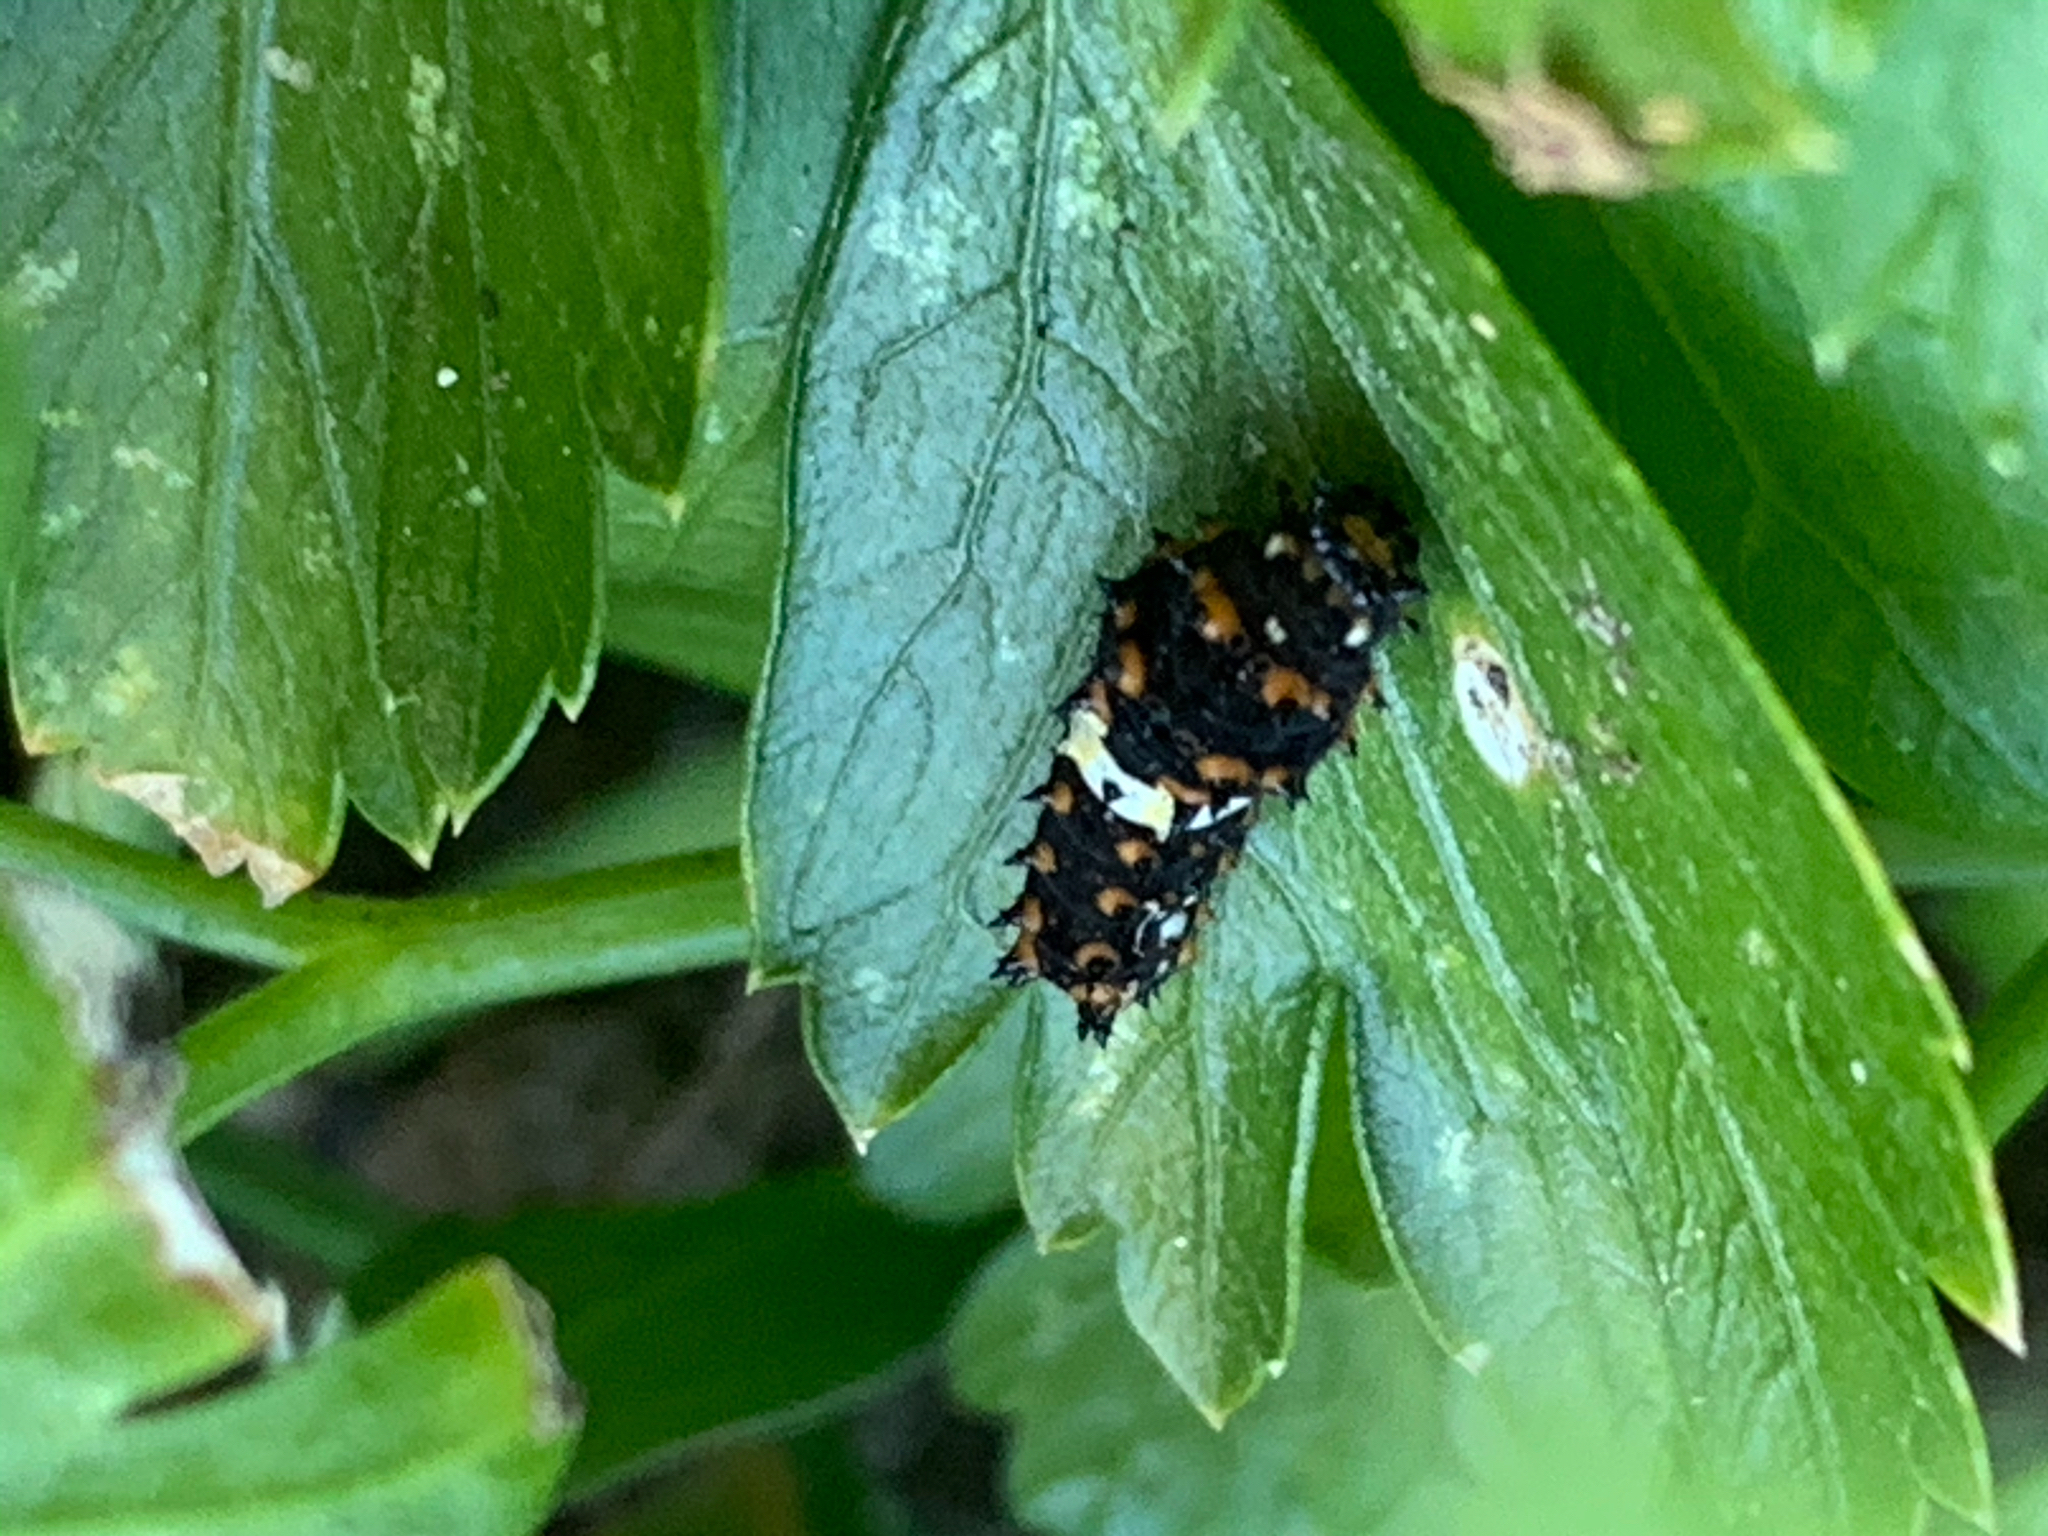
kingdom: Animalia
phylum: Arthropoda
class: Insecta
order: Lepidoptera
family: Papilionidae
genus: Papilio
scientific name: Papilio polyxenes
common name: Black swallowtail
